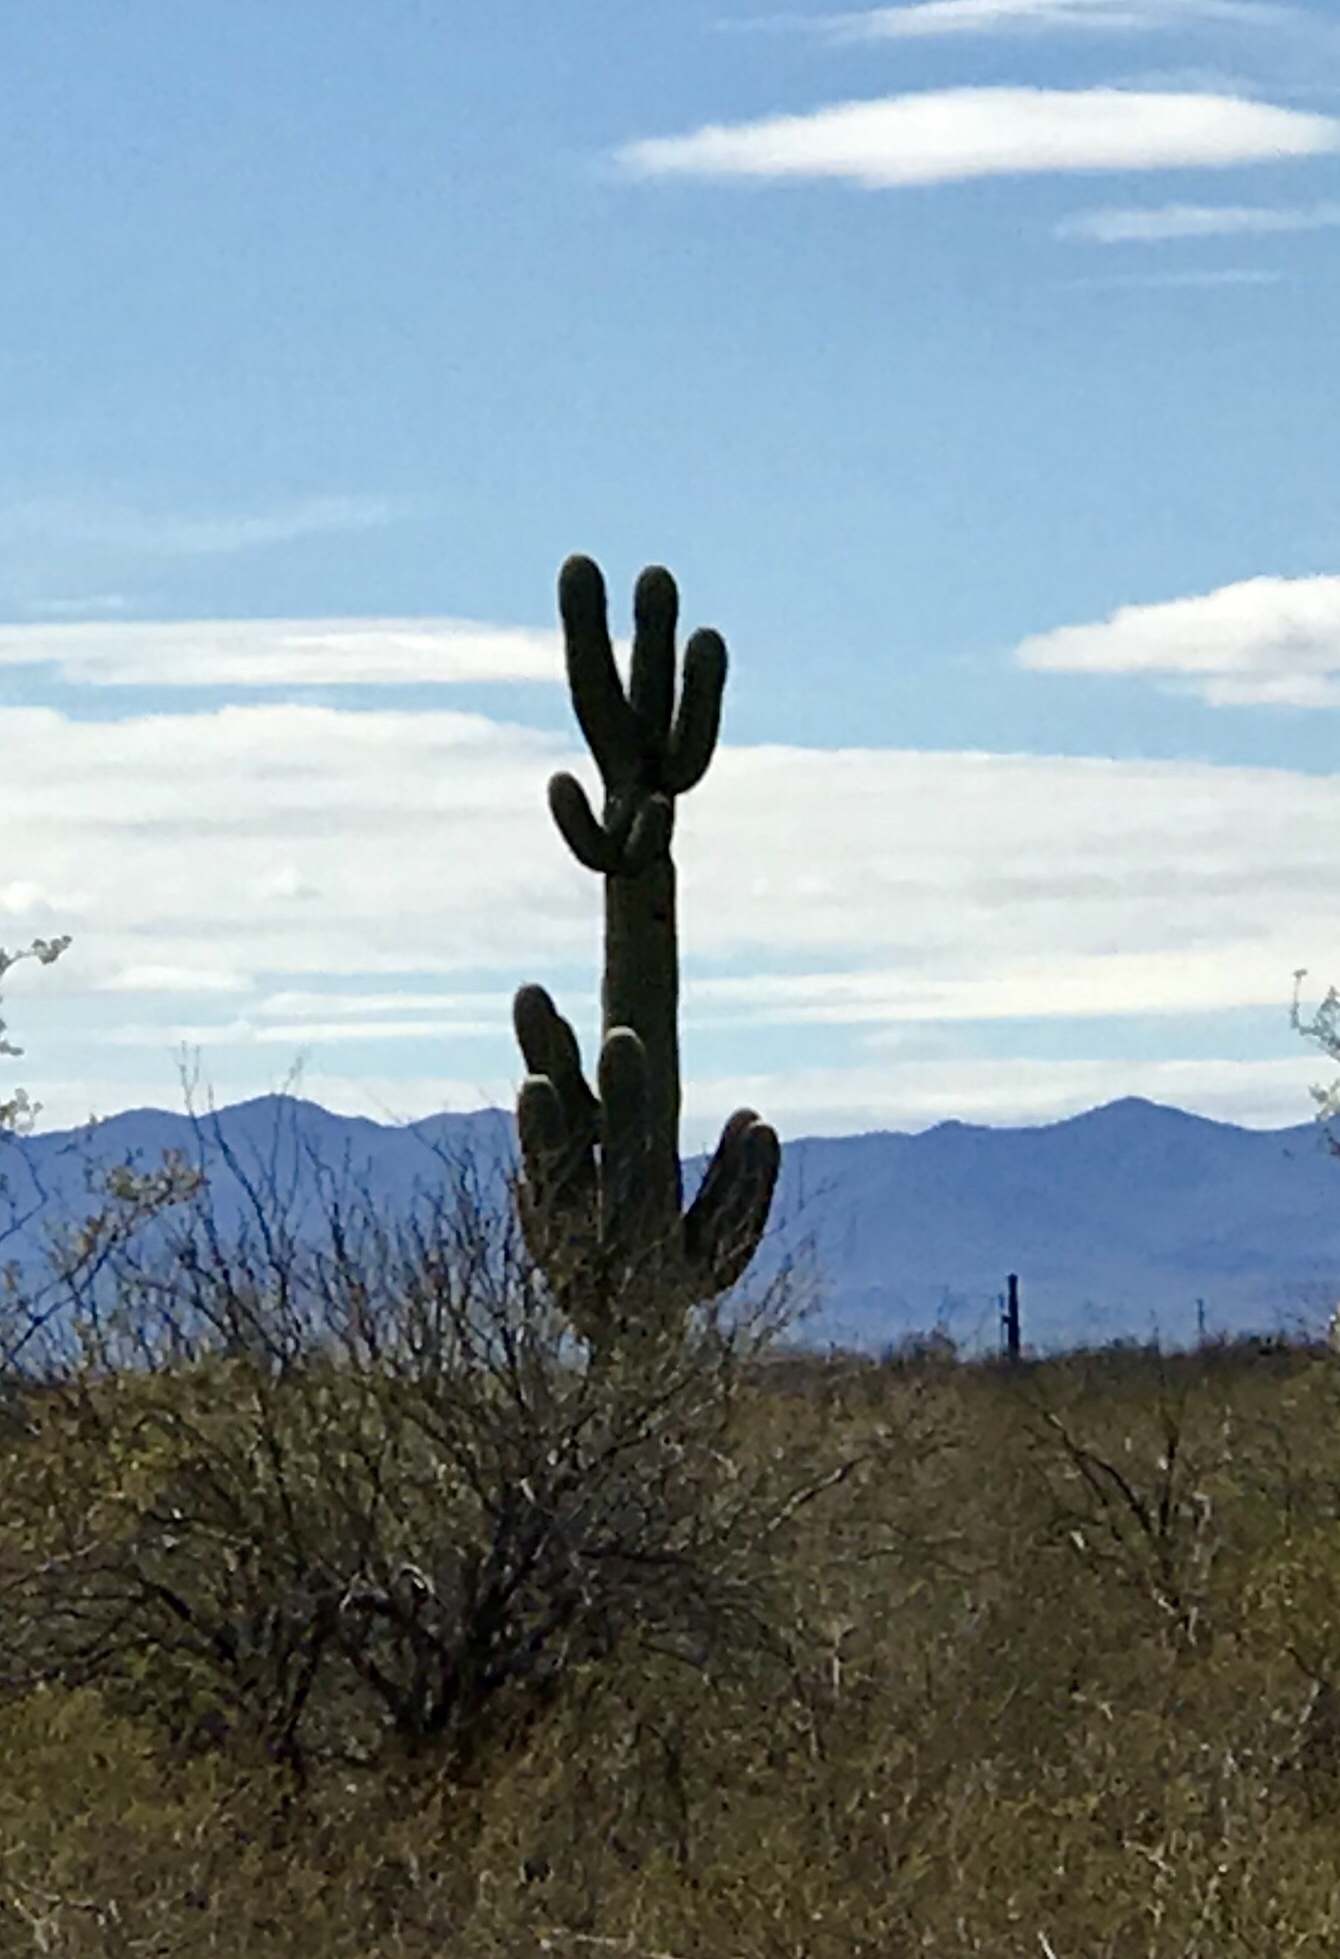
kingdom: Plantae
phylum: Tracheophyta
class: Magnoliopsida
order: Caryophyllales
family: Cactaceae
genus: Carnegiea
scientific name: Carnegiea gigantea
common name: Saguaro
